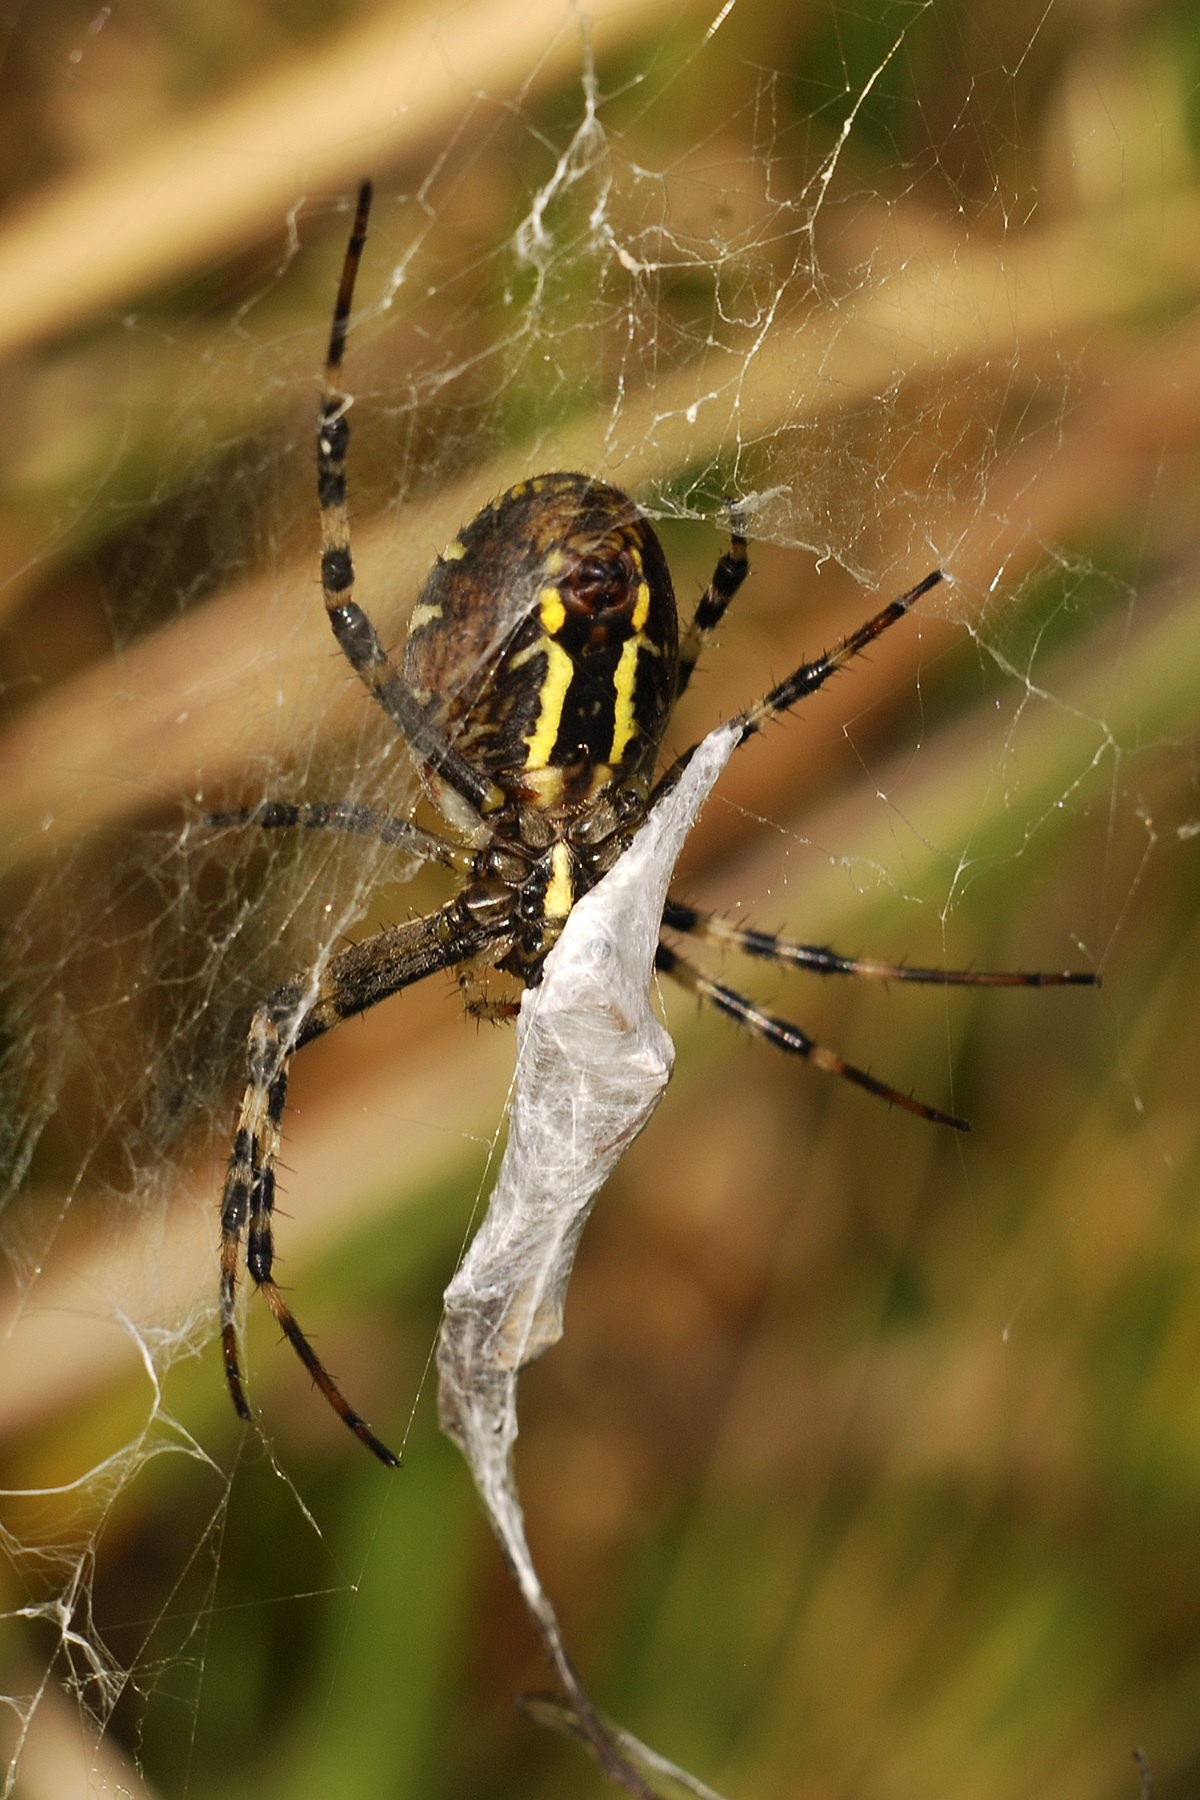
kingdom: Animalia
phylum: Arthropoda
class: Arachnida
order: Araneae
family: Araneidae
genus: Argiope
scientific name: Argiope bruennichi
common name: Wasp spider
